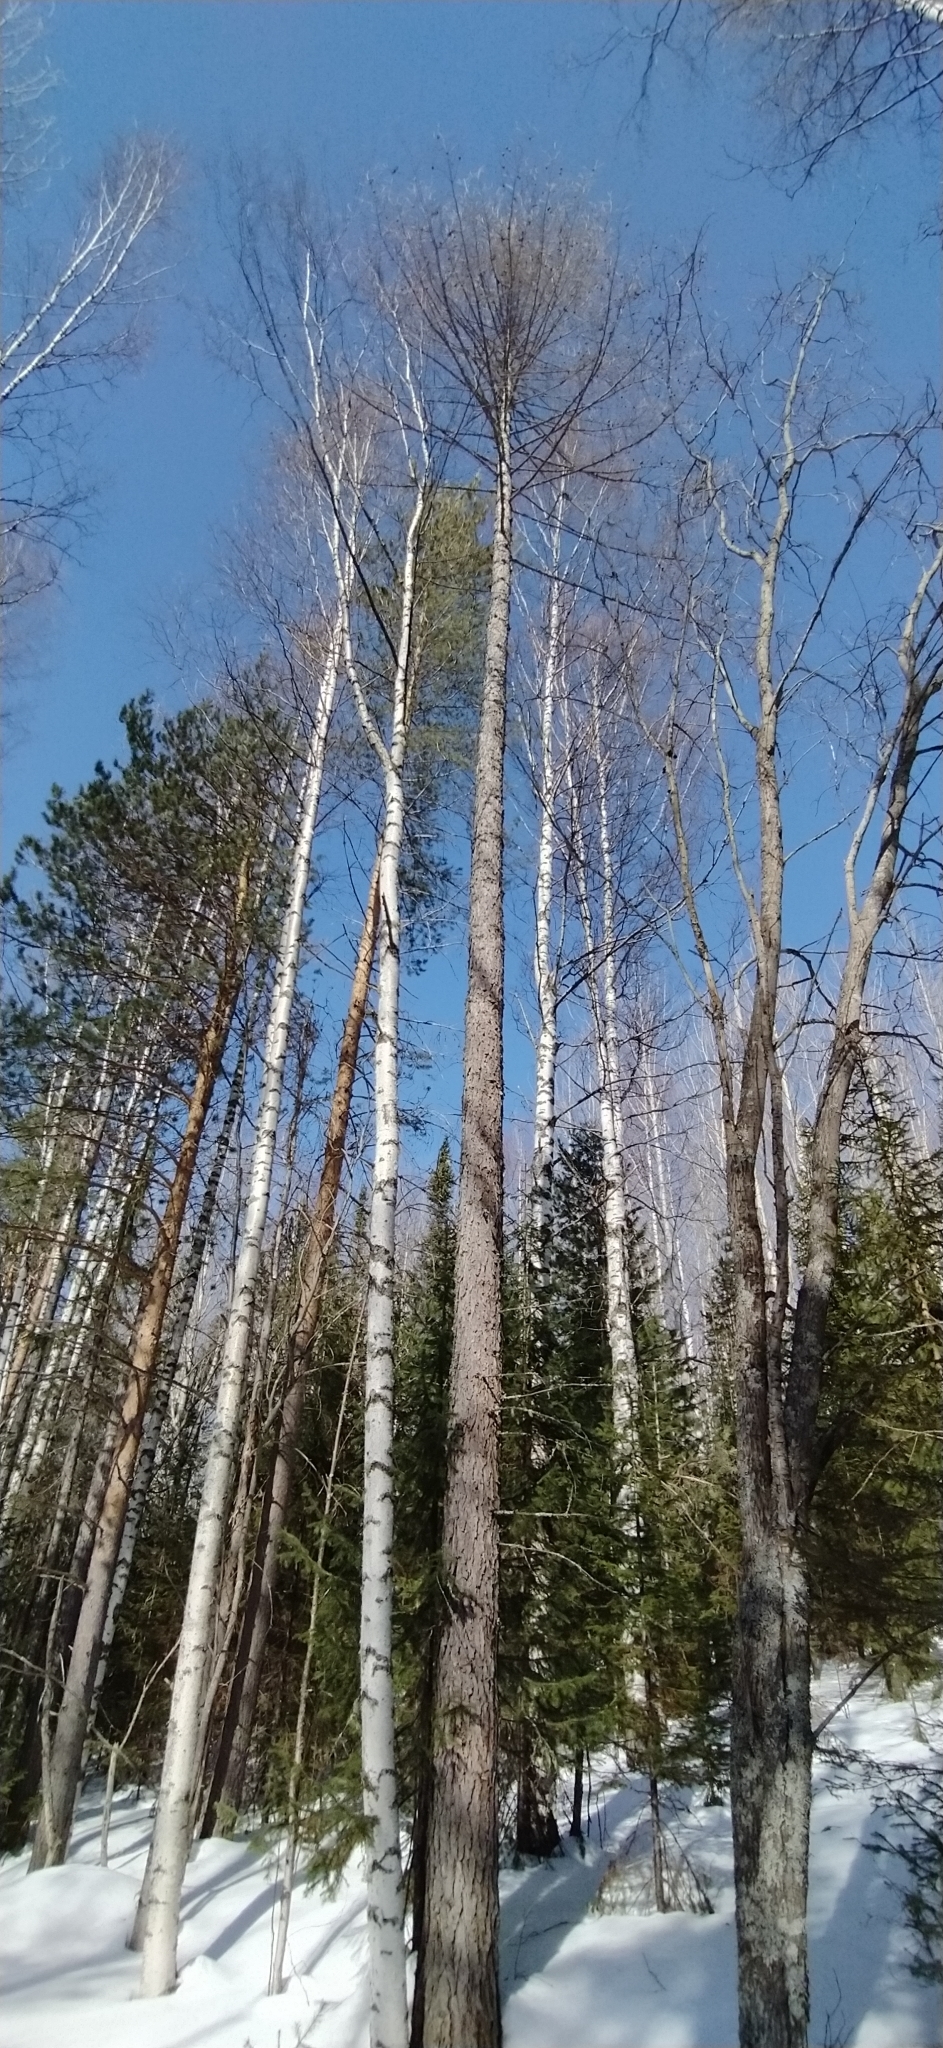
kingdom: Plantae
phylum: Tracheophyta
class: Pinopsida
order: Pinales
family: Pinaceae
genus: Larix
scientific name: Larix sibirica
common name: Siberian larch
